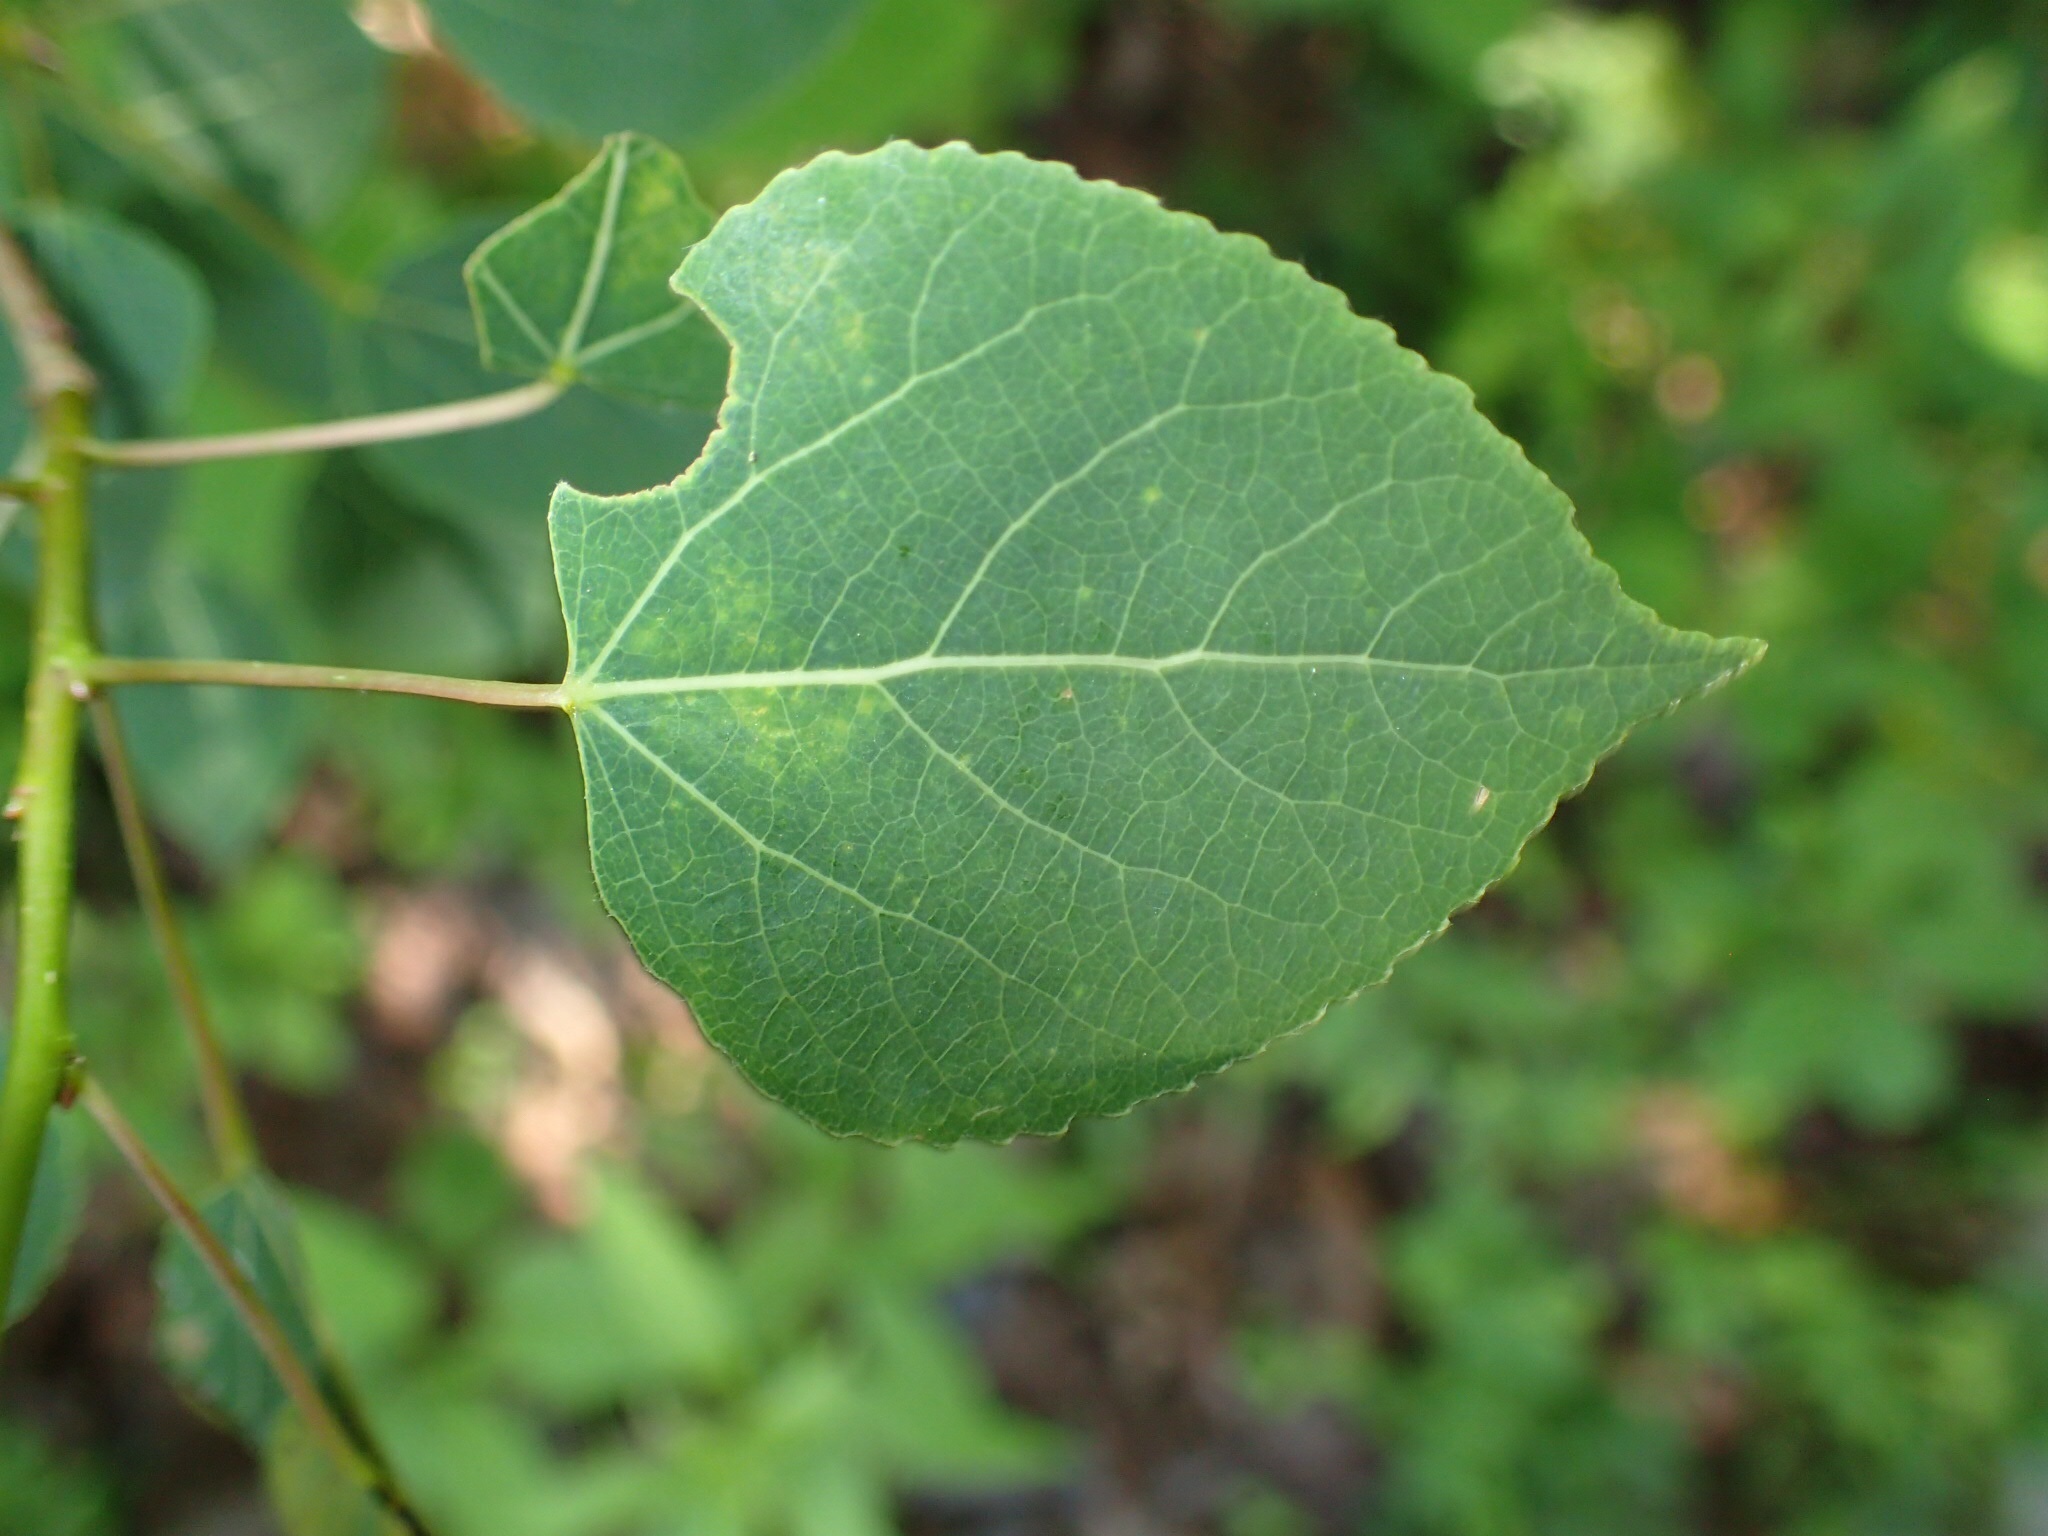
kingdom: Plantae
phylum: Tracheophyta
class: Magnoliopsida
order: Malpighiales
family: Salicaceae
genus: Populus
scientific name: Populus tremuloides
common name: Quaking aspen
